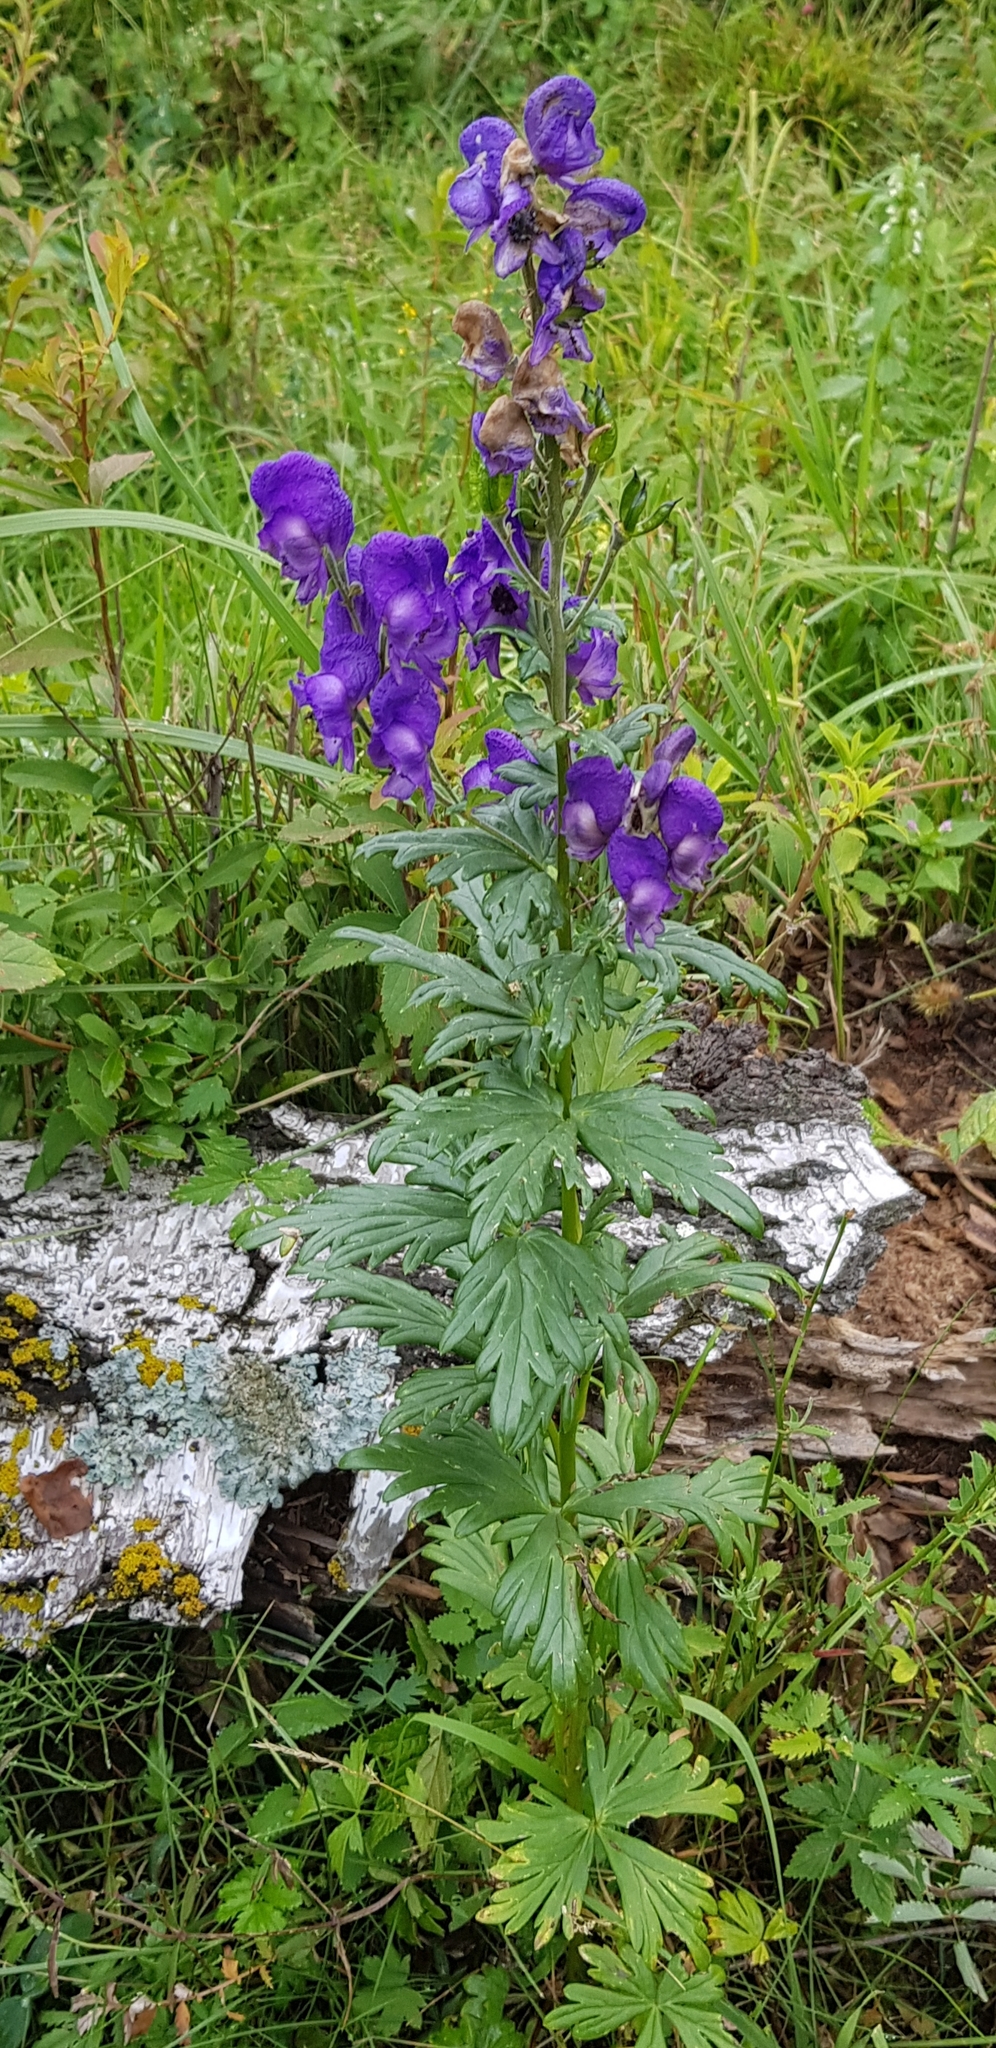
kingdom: Plantae
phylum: Tracheophyta
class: Magnoliopsida
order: Ranunculales
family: Ranunculaceae
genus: Aconitum
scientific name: Aconitum volubile
